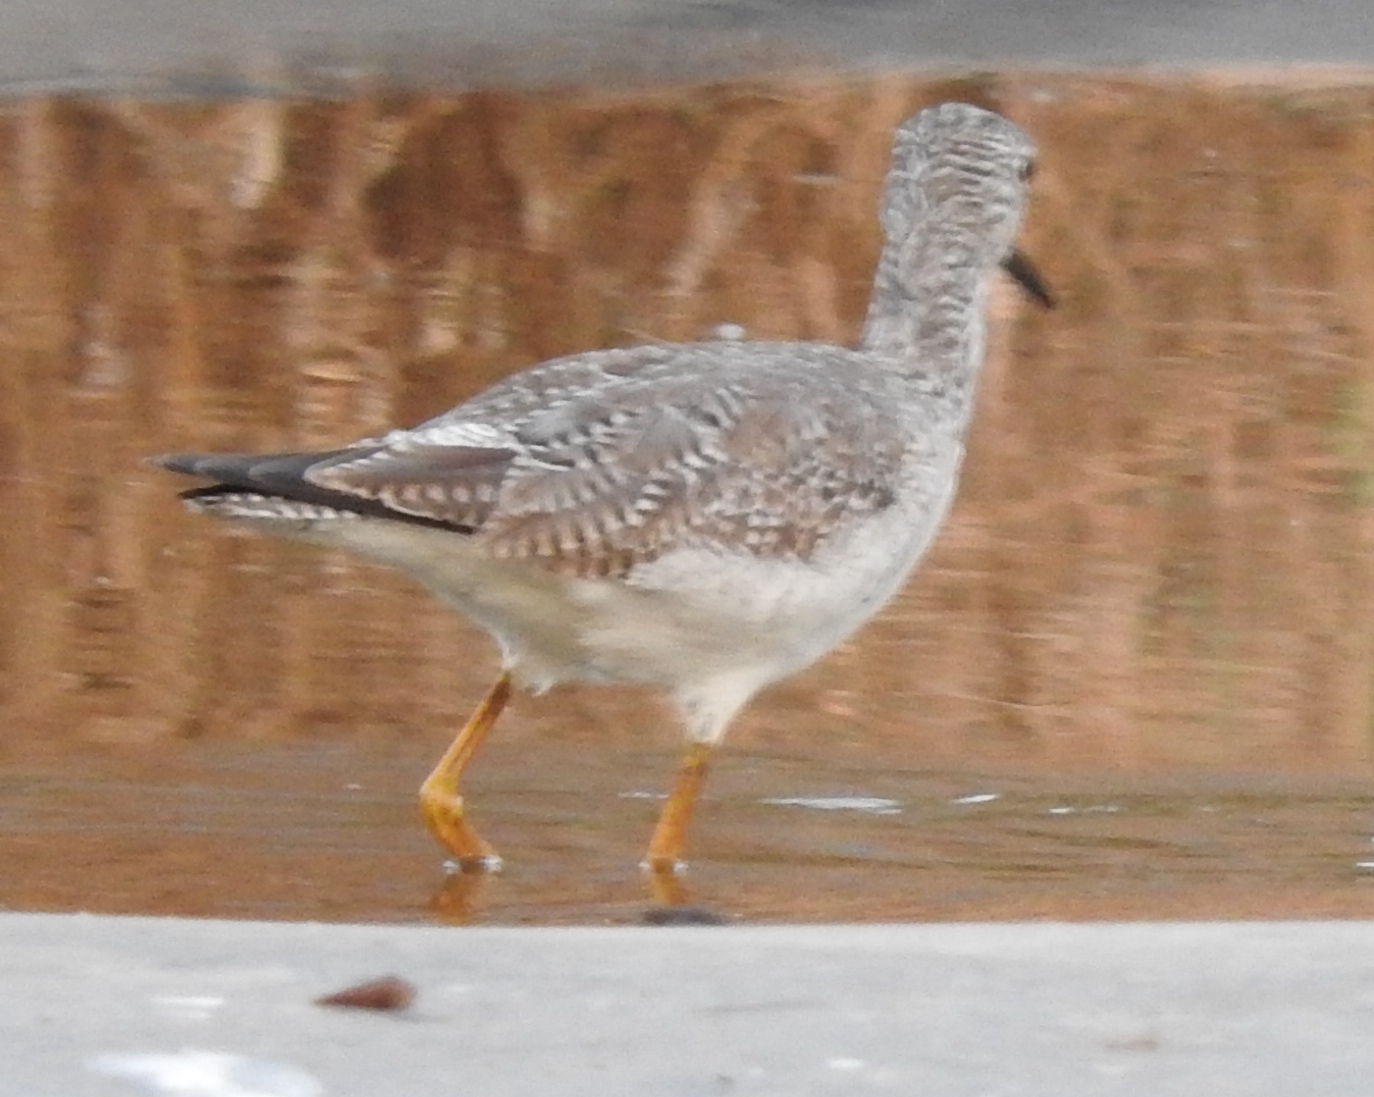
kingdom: Animalia
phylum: Chordata
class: Aves
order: Charadriiformes
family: Scolopacidae
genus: Tringa
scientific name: Tringa melanoleuca
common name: Greater yellowlegs
